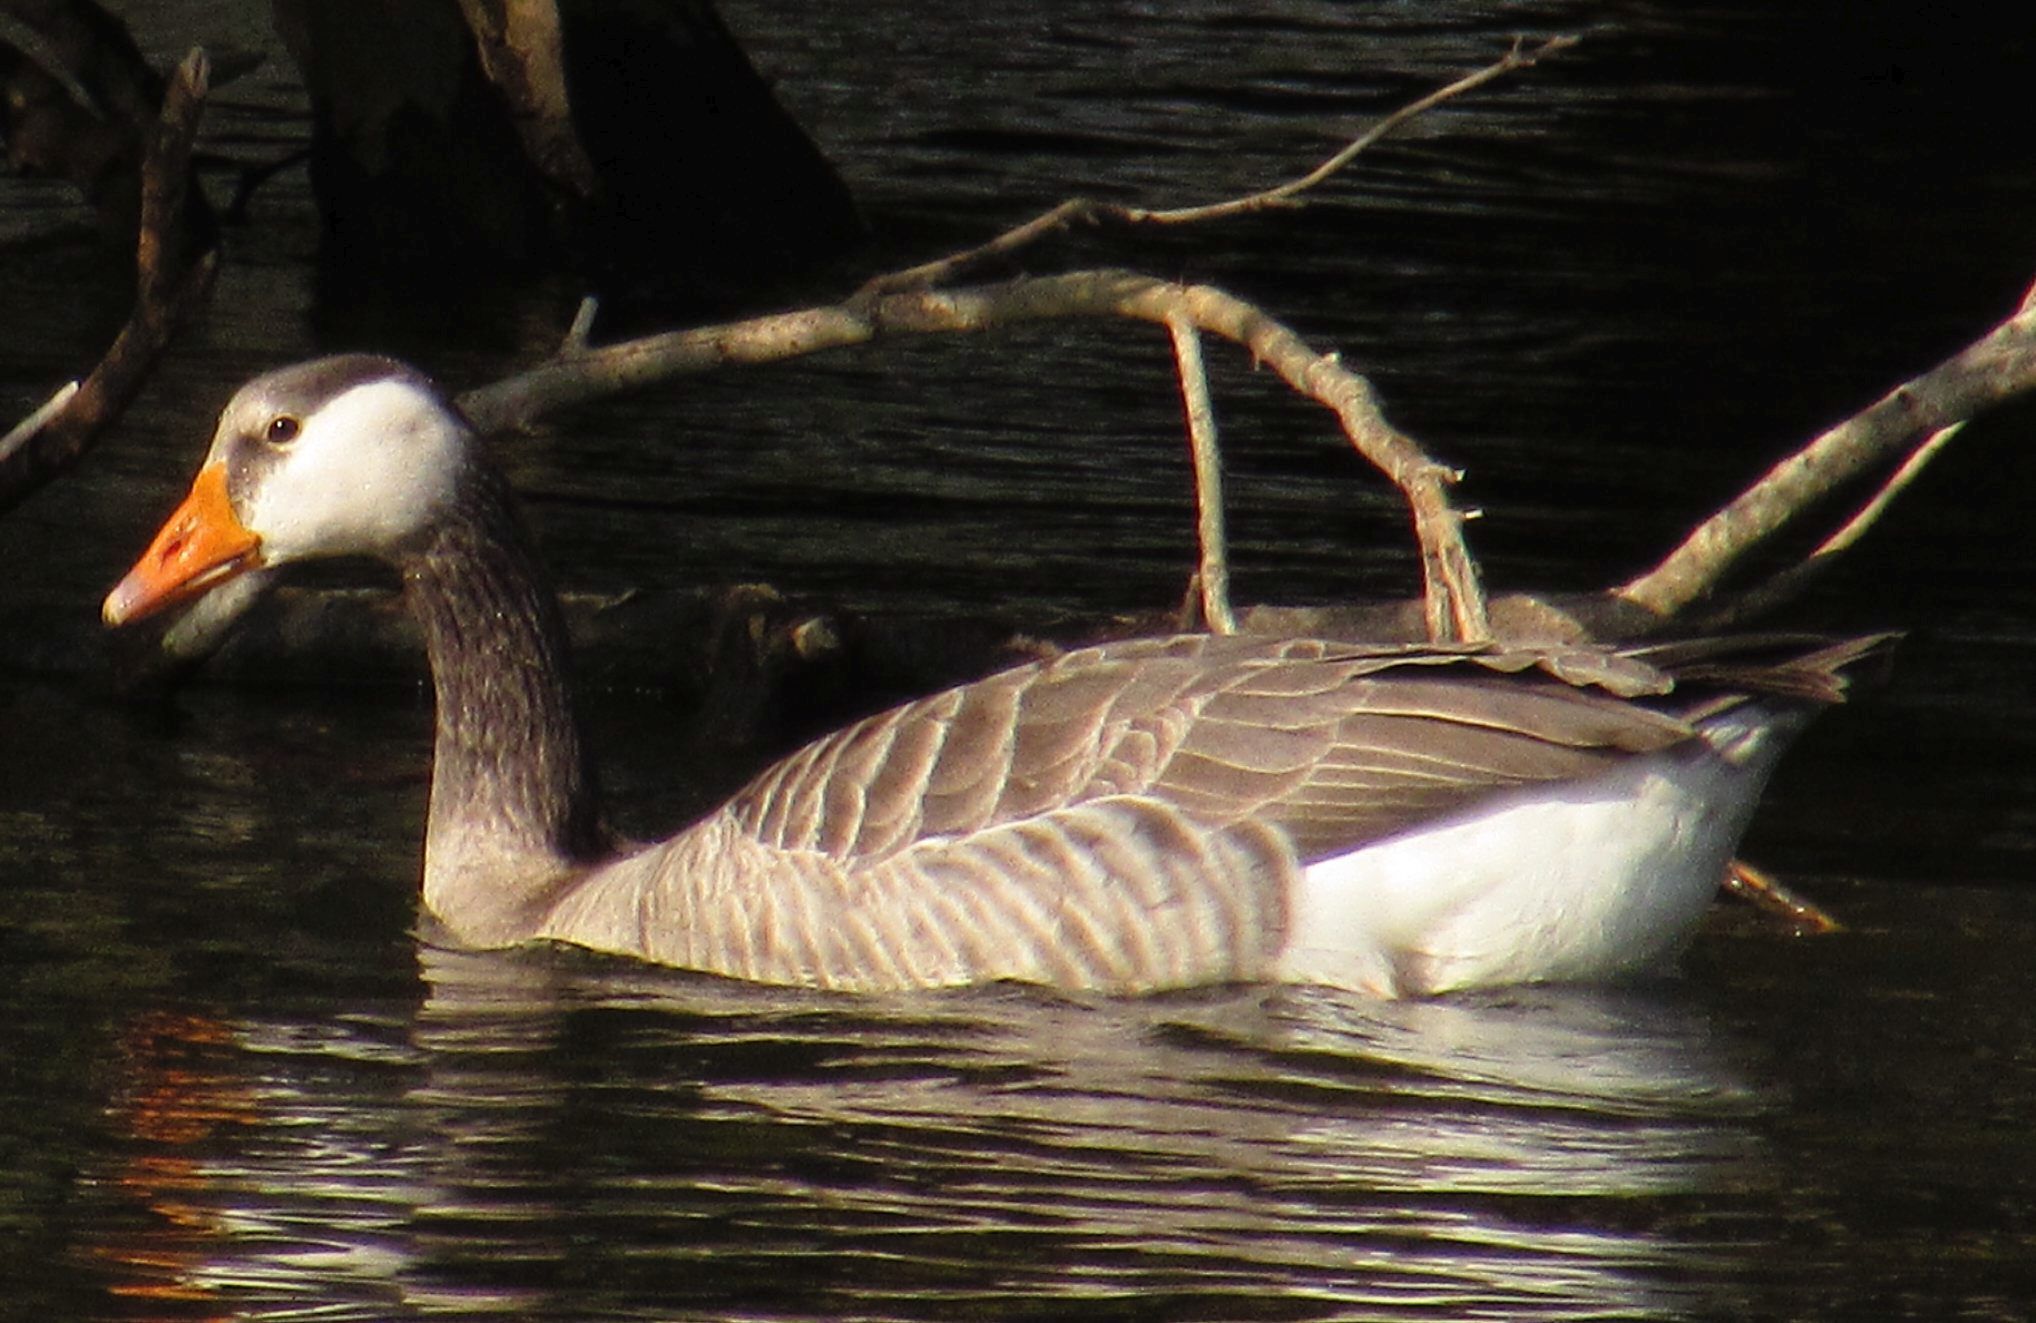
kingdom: Animalia
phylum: Chordata
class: Aves
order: Anseriformes
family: Anatidae
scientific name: Anatidae
